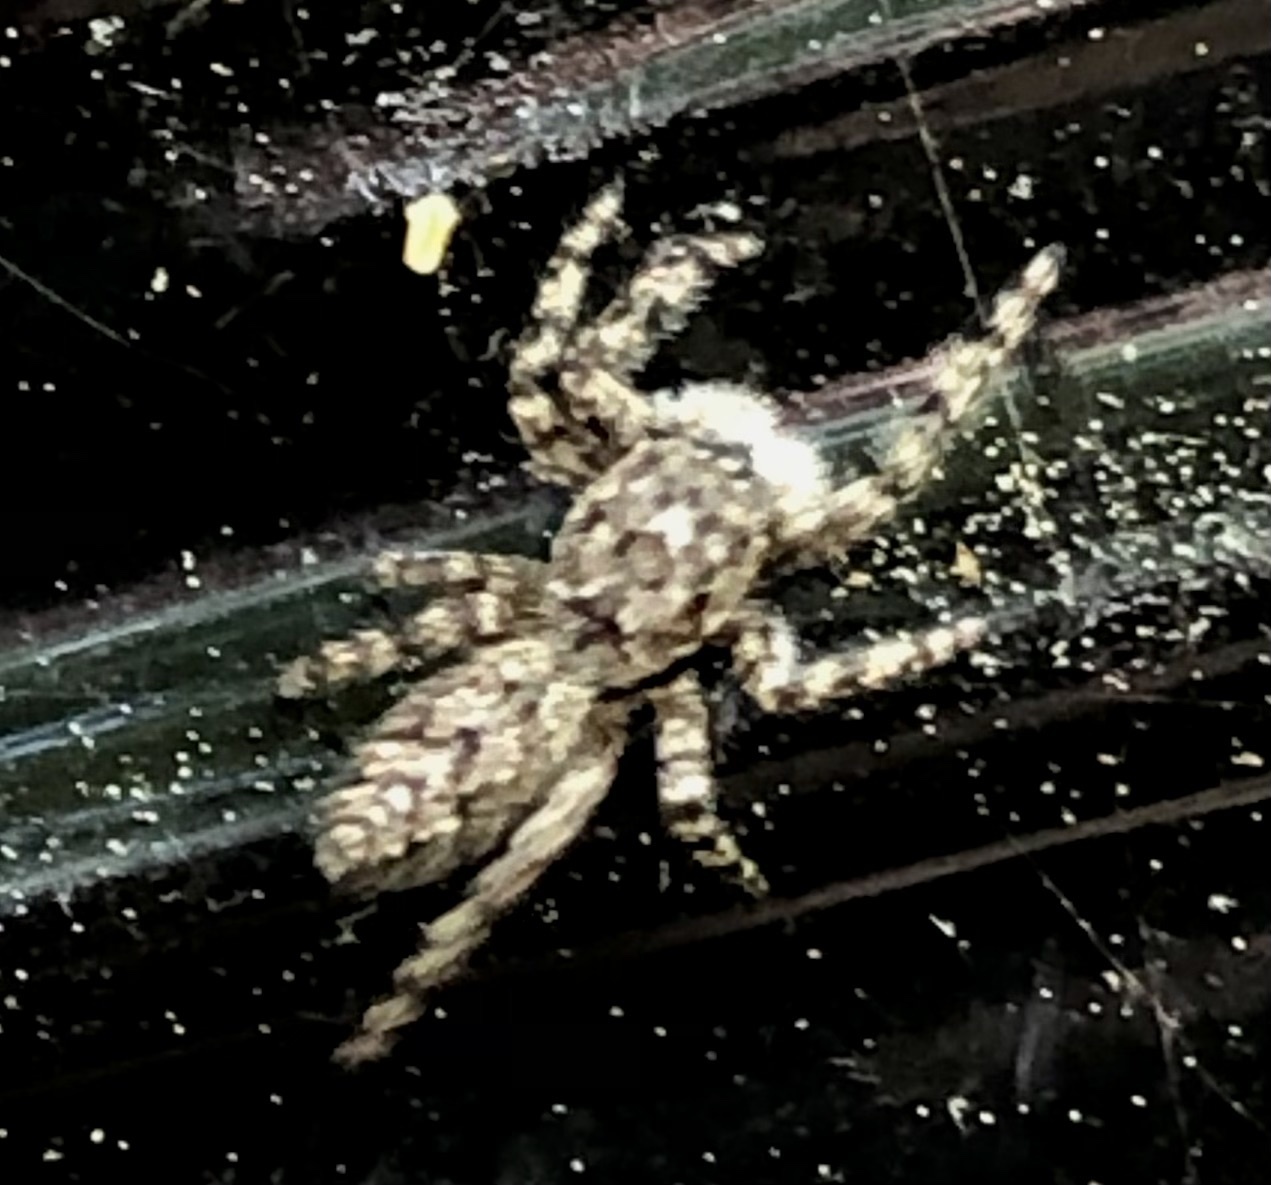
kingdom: Animalia
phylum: Arthropoda
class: Arachnida
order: Araneae
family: Salticidae
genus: Platycryptus
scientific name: Platycryptus undatus
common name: Tan jumping spider
